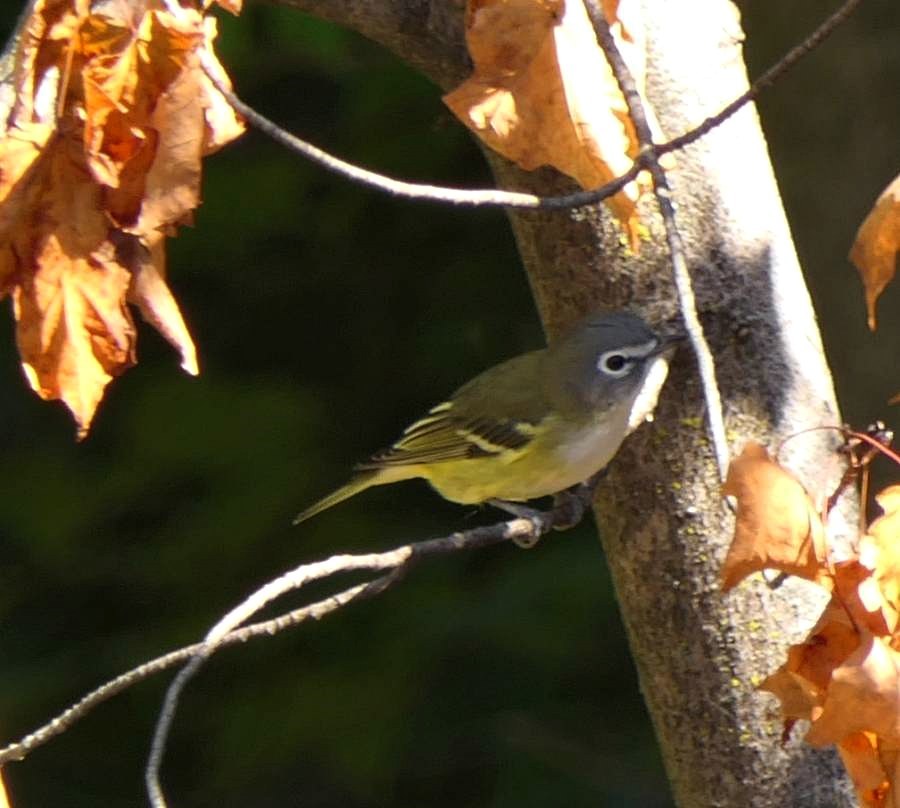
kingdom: Animalia
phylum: Chordata
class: Aves
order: Passeriformes
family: Vireonidae
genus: Vireo
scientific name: Vireo solitarius
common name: Blue-headed vireo
